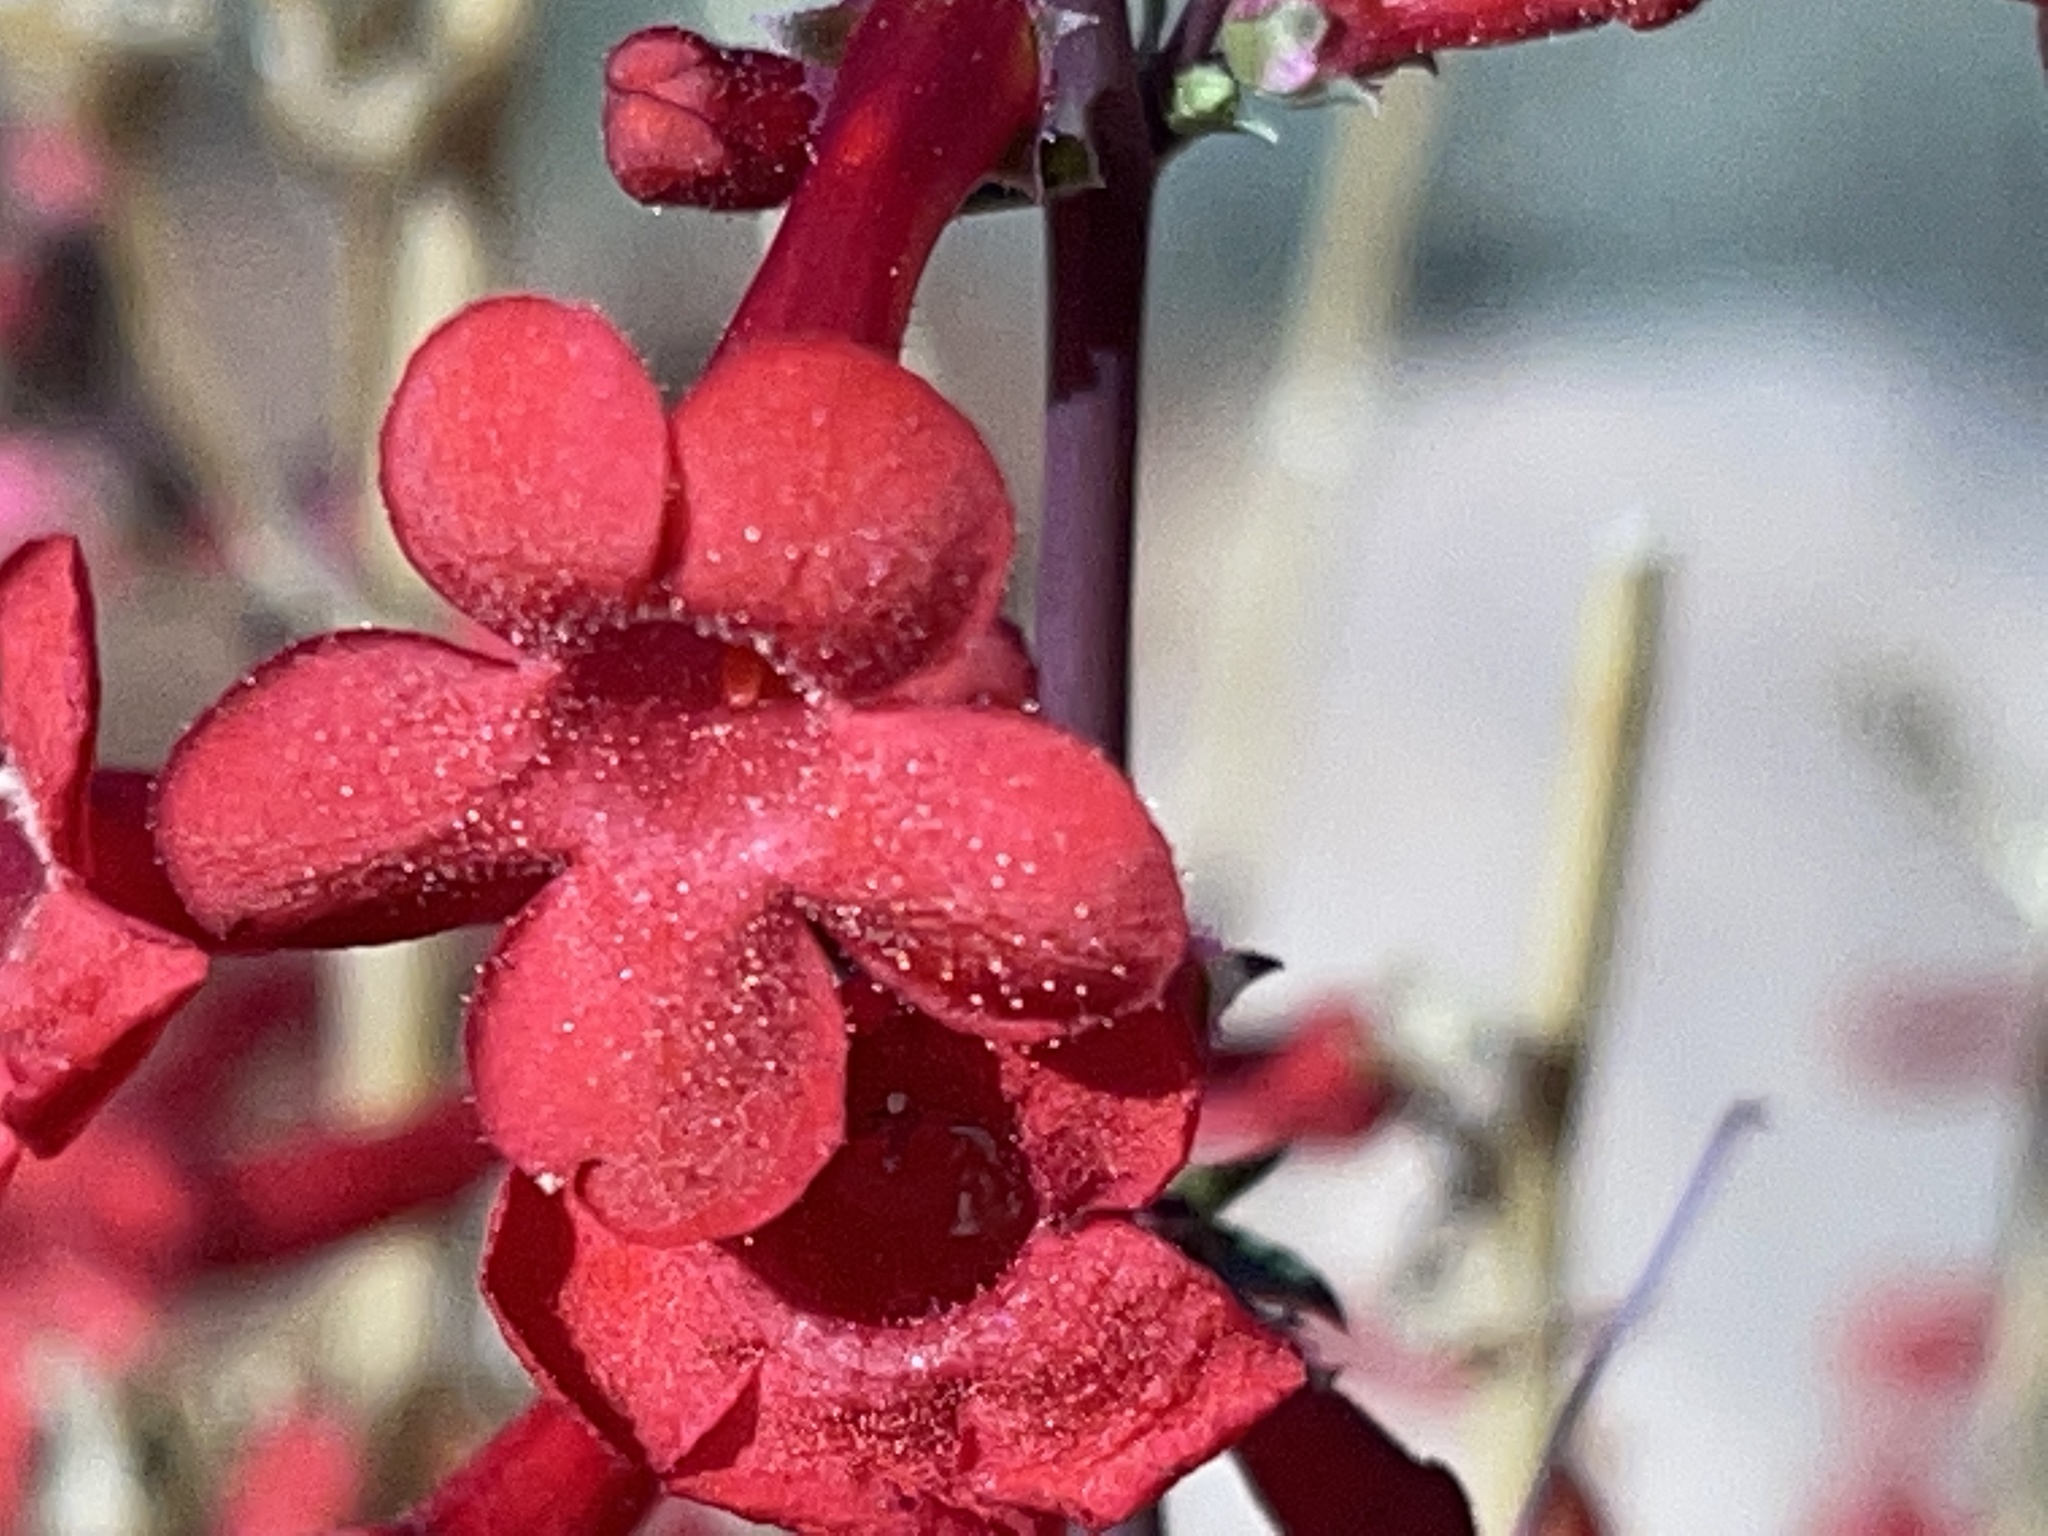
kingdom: Plantae
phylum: Tracheophyta
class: Magnoliopsida
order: Lamiales
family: Plantaginaceae
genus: Penstemon
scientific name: Penstemon utahensis
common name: Utah penstemon
